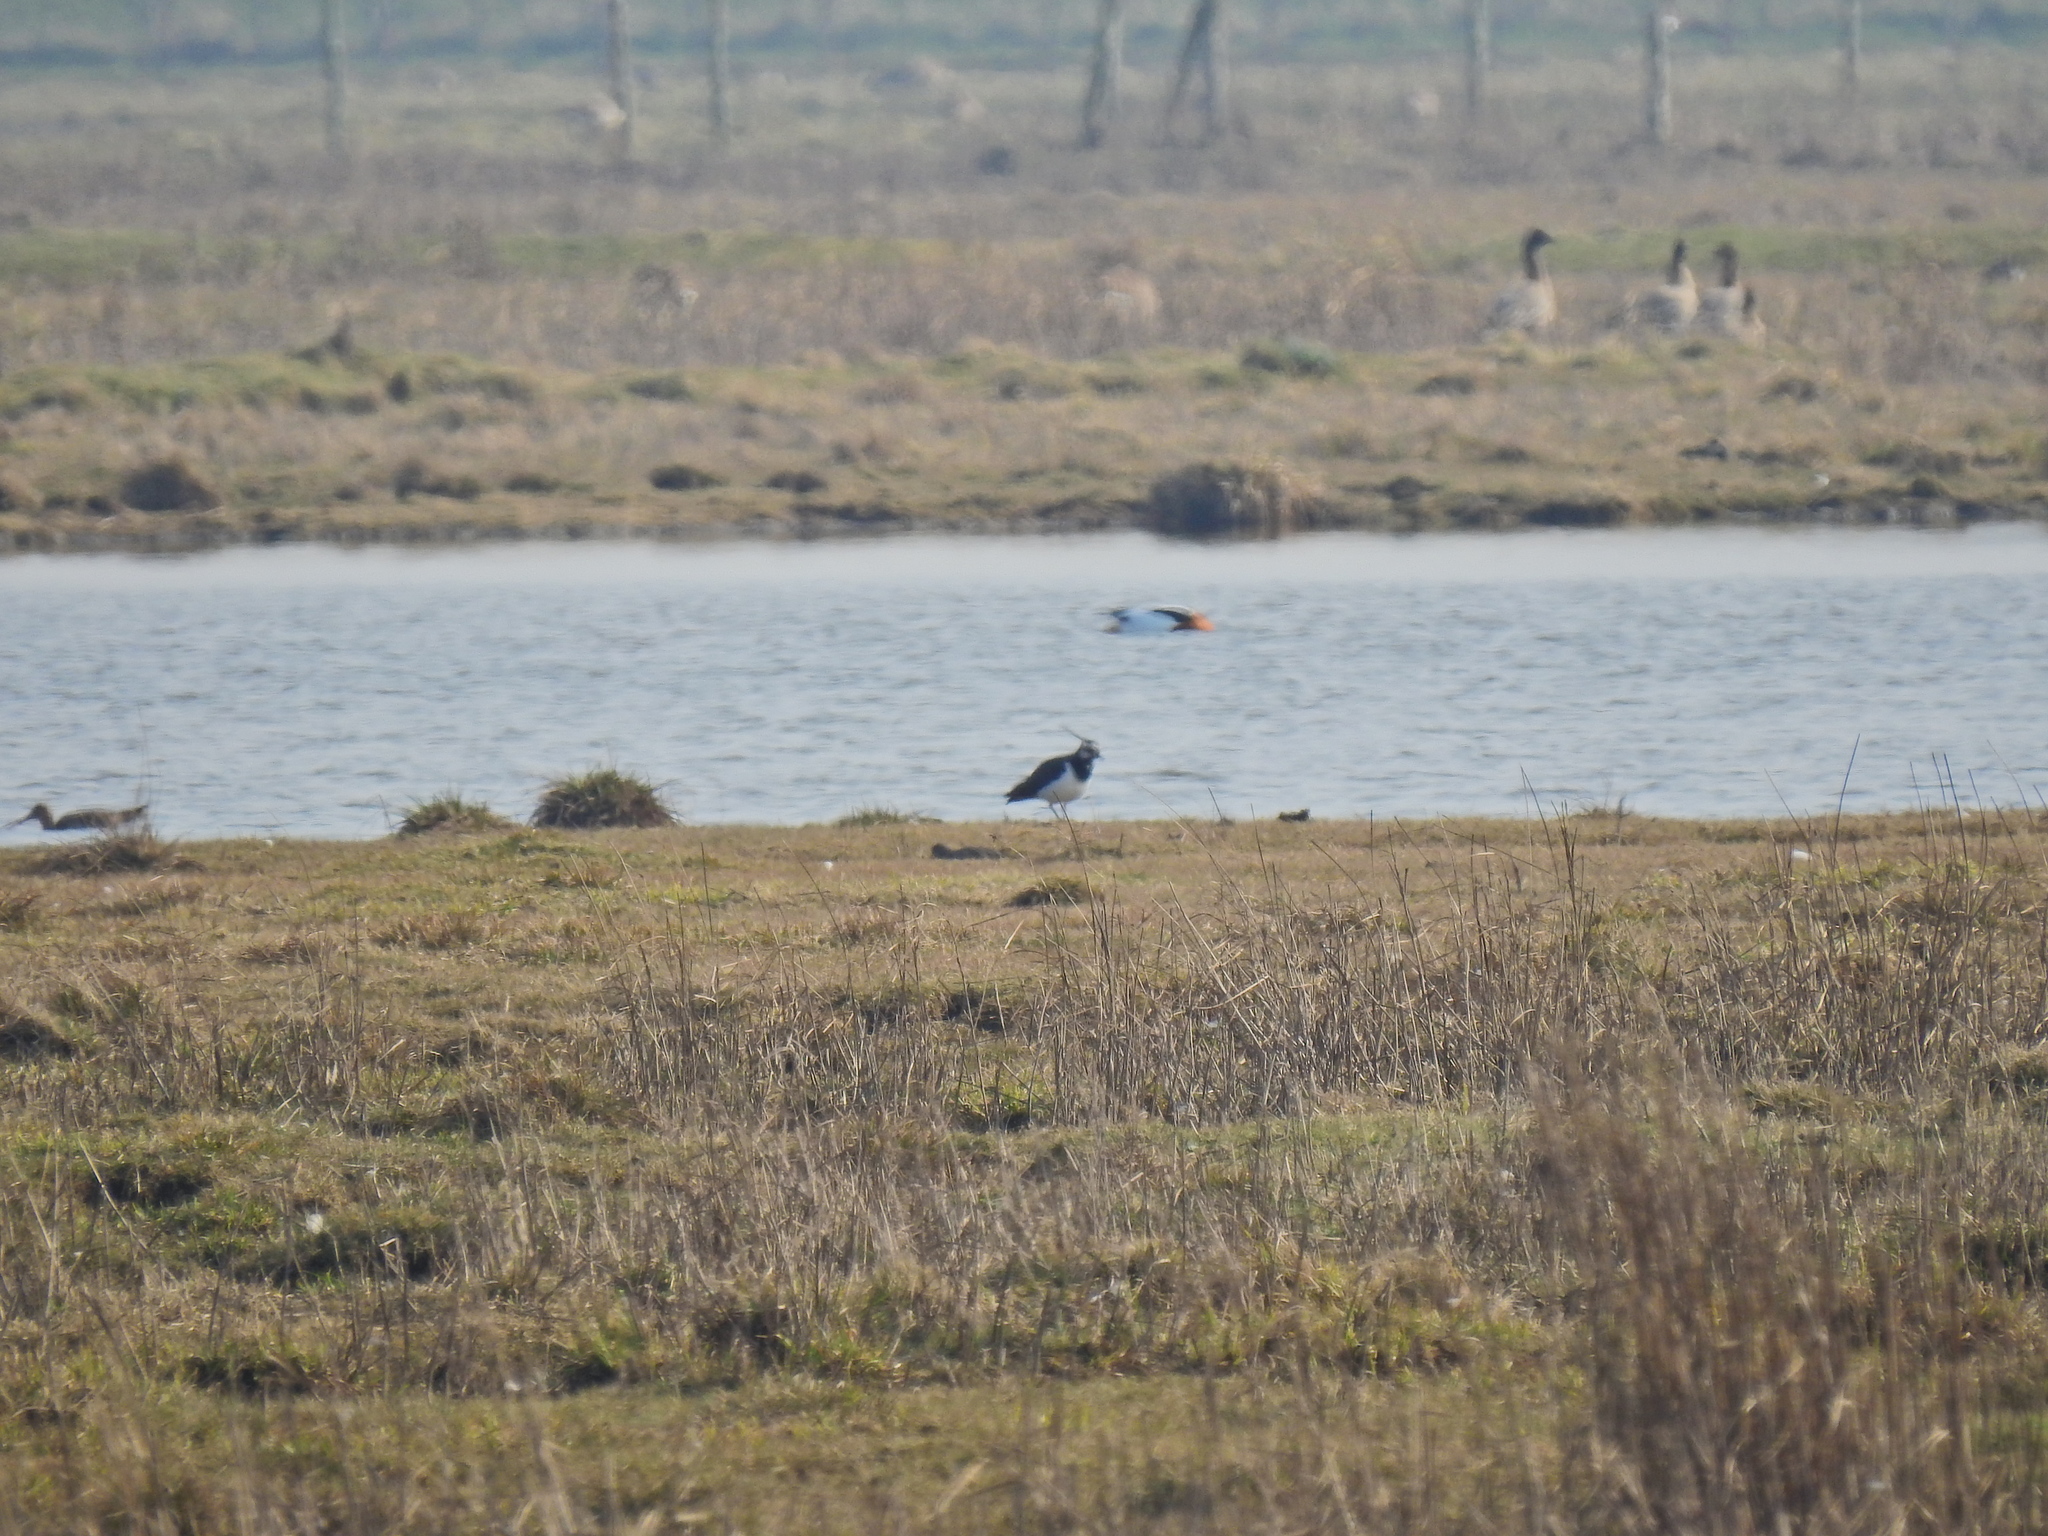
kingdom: Animalia
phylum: Chordata
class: Aves
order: Charadriiformes
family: Charadriidae
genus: Vanellus
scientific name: Vanellus vanellus
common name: Northern lapwing
